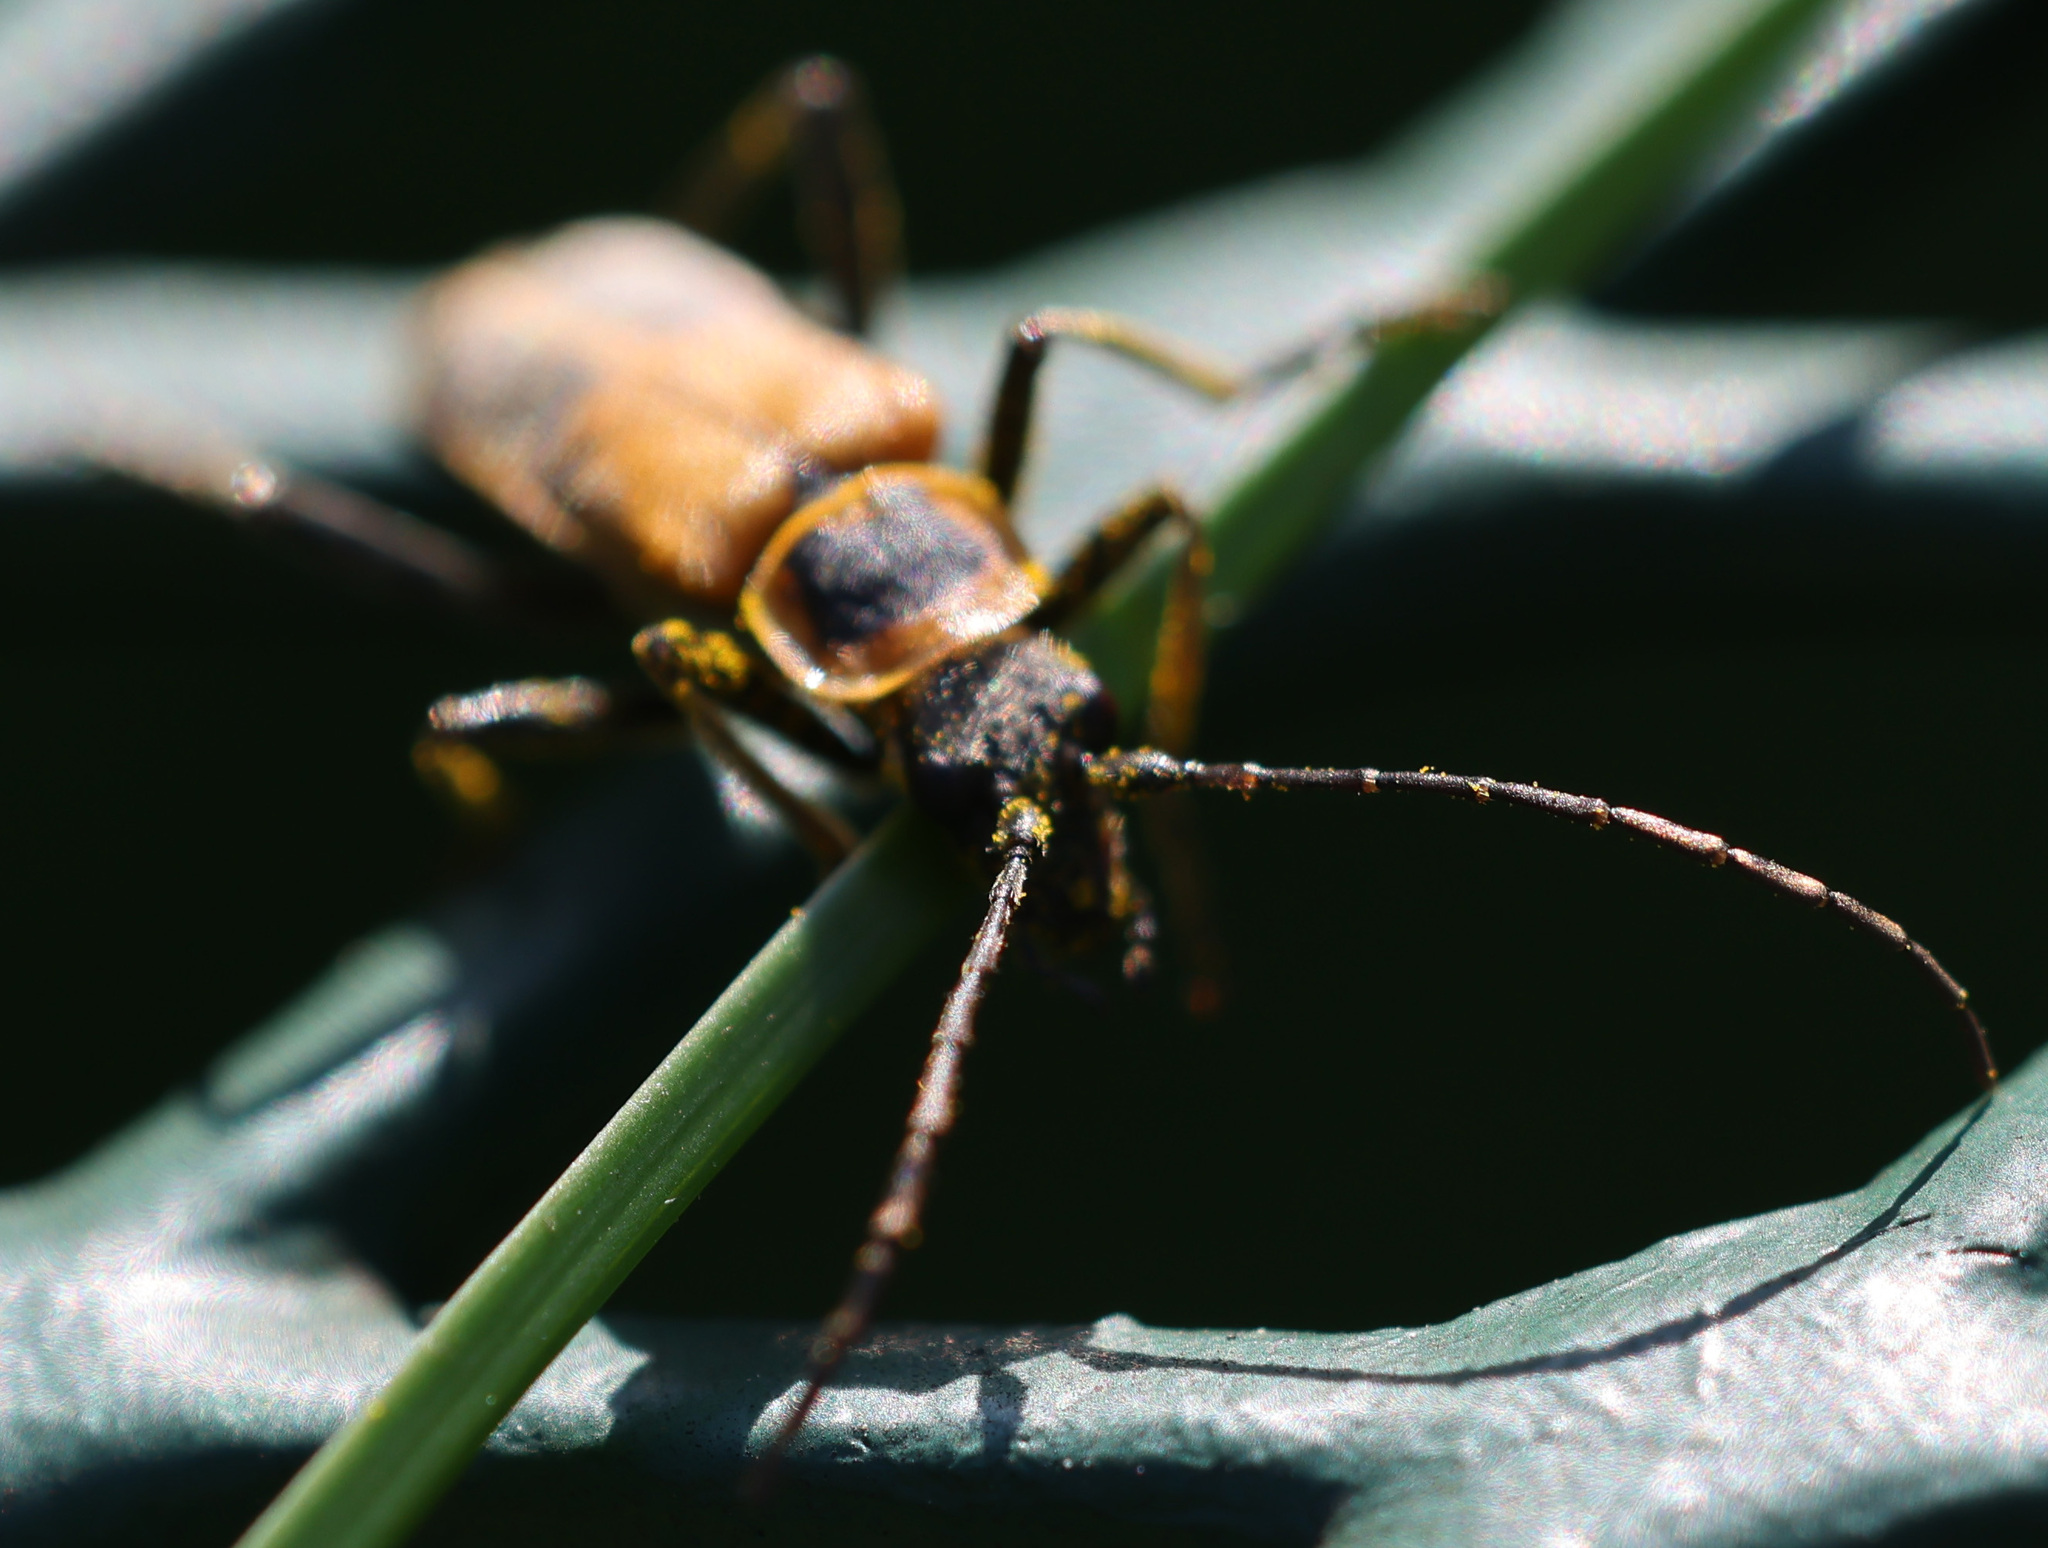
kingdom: Animalia
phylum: Arthropoda
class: Insecta
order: Coleoptera
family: Cantharidae
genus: Chauliognathus
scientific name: Chauliognathus pensylvanicus
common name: Goldenrod soldier beetle
